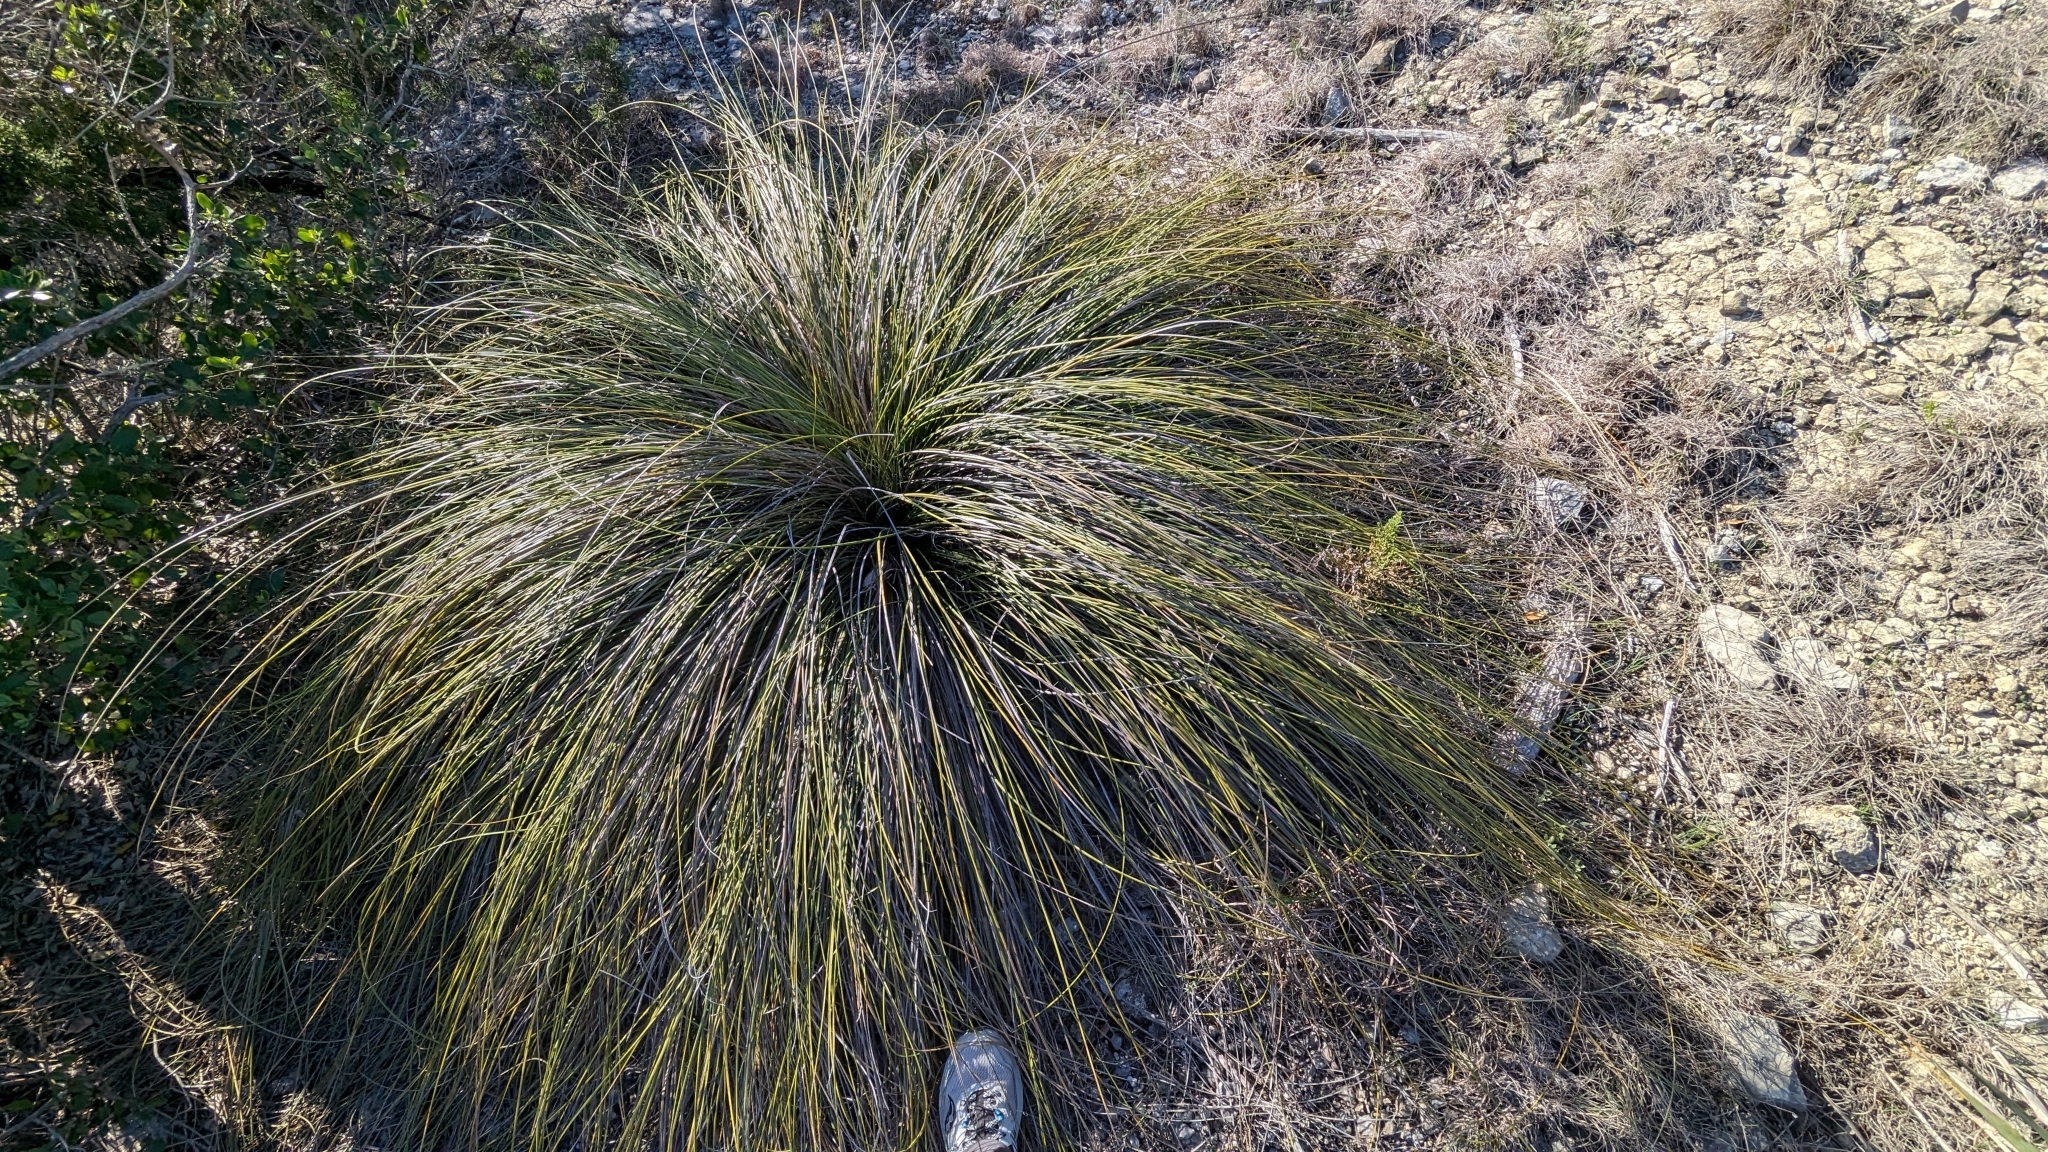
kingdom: Plantae
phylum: Tracheophyta
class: Liliopsida
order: Asparagales
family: Asparagaceae
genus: Nolina
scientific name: Nolina texana
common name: Texas sacahuiste
